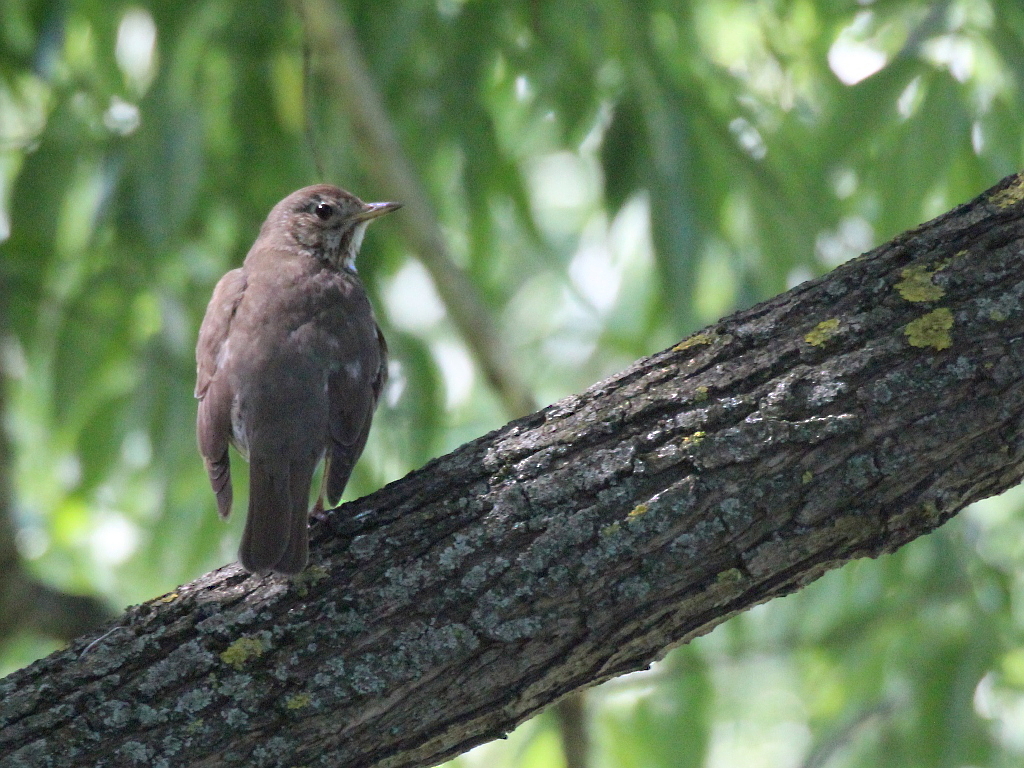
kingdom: Animalia
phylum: Chordata
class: Aves
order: Passeriformes
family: Turdidae
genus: Turdus
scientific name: Turdus philomelos
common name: Song thrush
